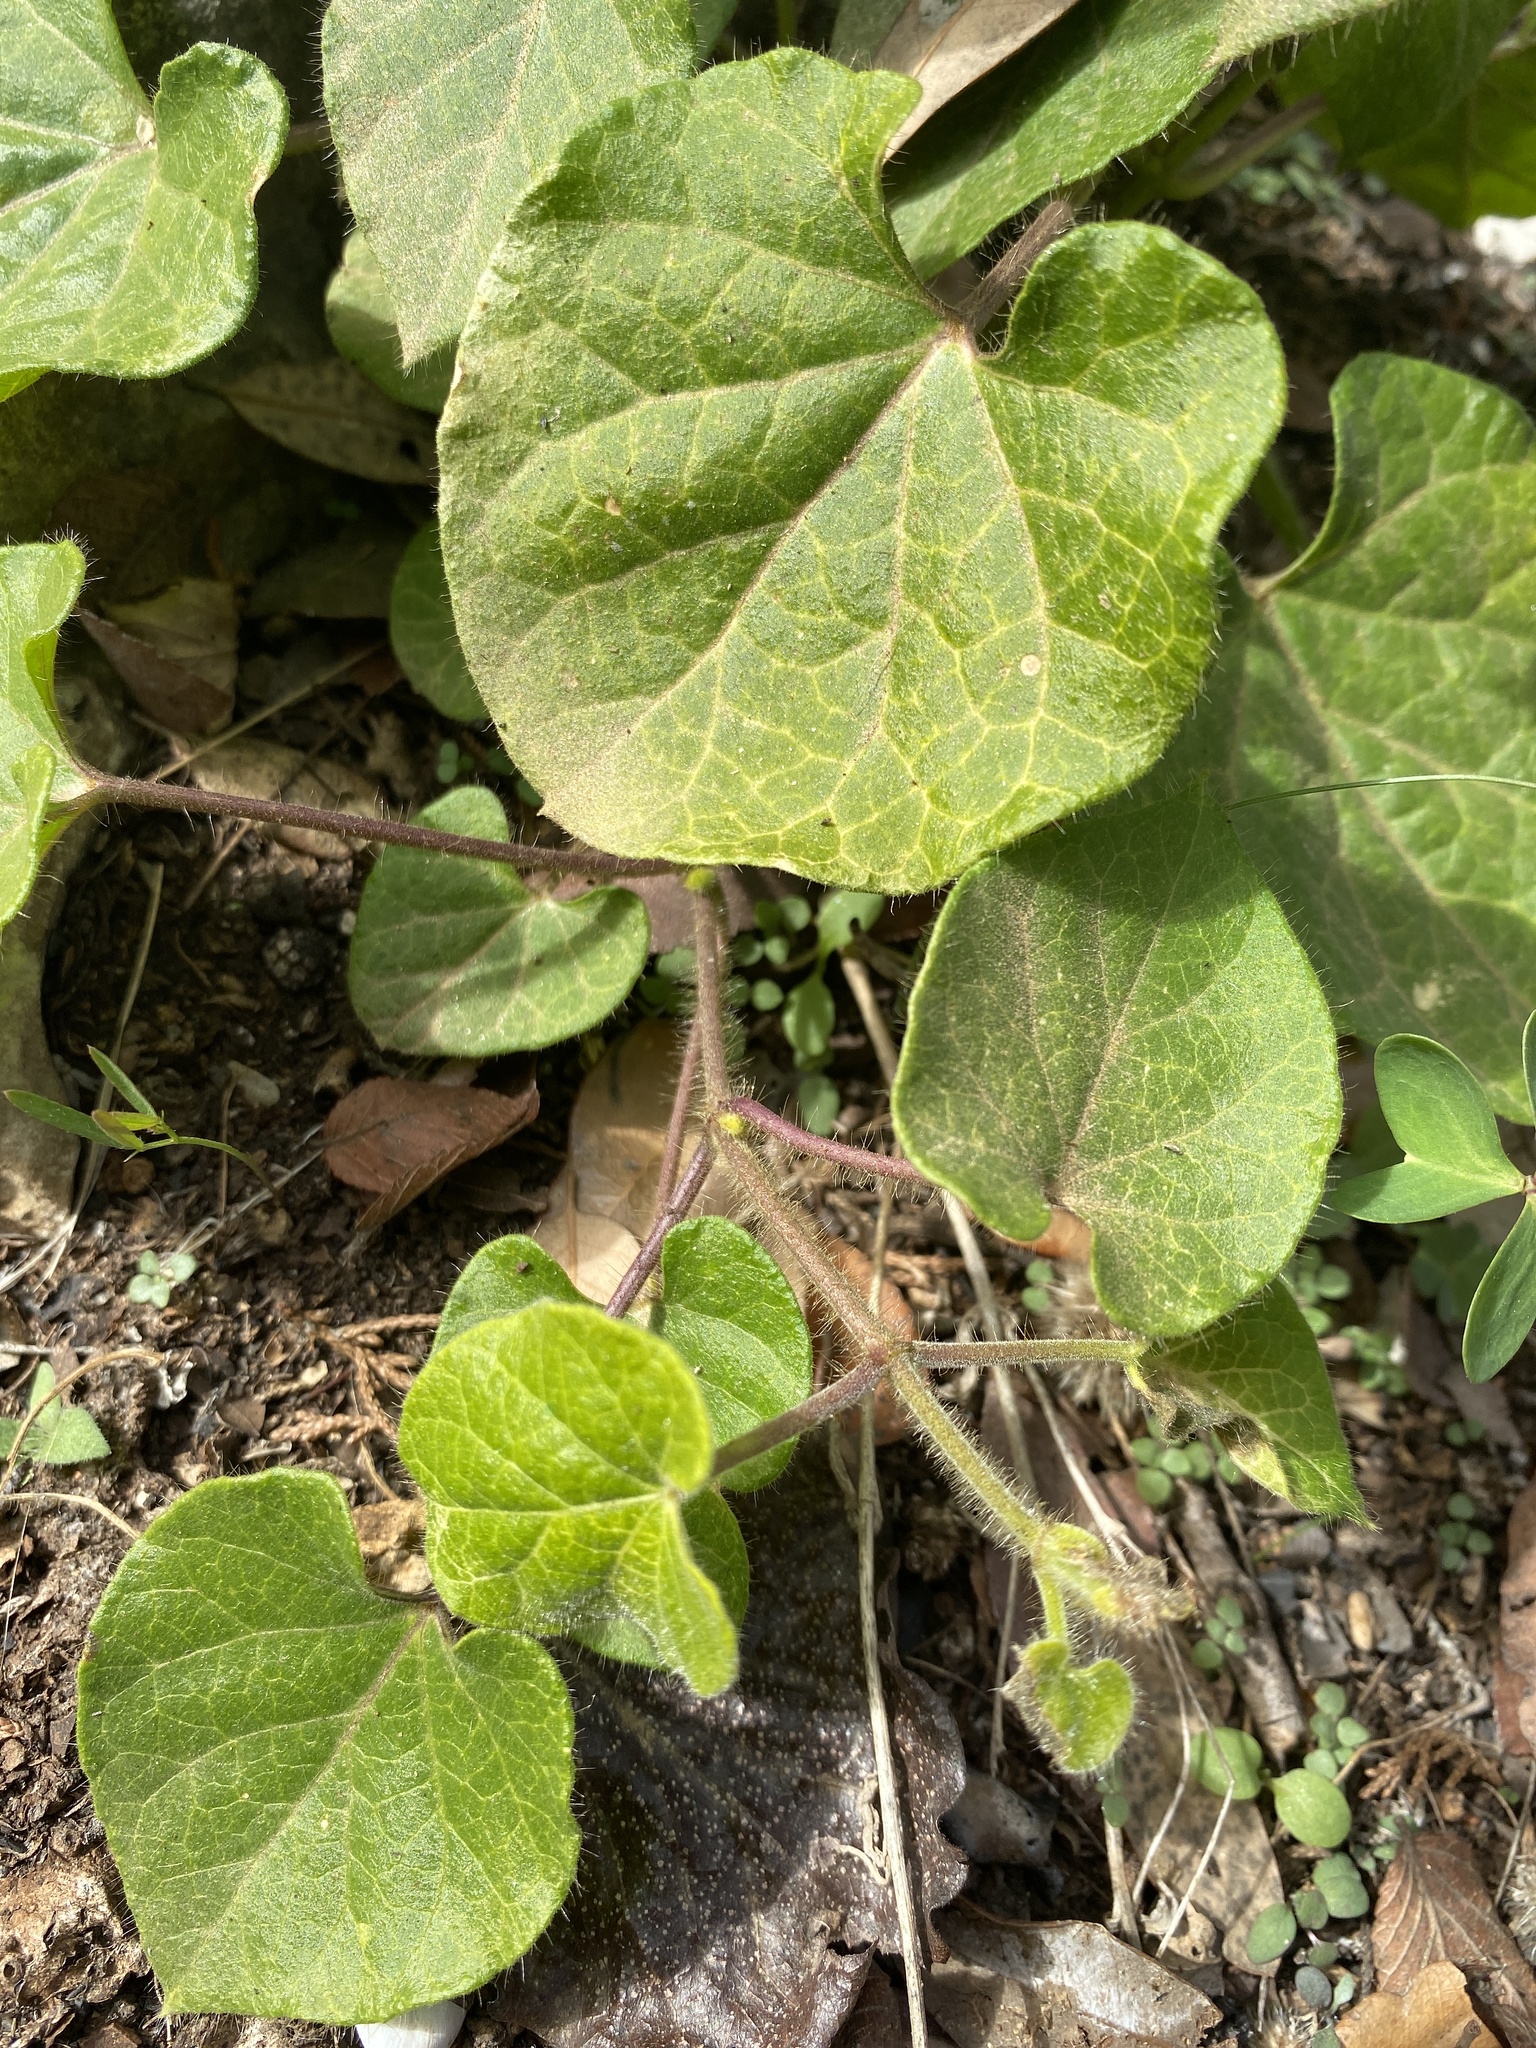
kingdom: Plantae
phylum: Tracheophyta
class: Magnoliopsida
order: Gentianales
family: Apocynaceae
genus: Dictyanthus
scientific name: Dictyanthus reticulatus
